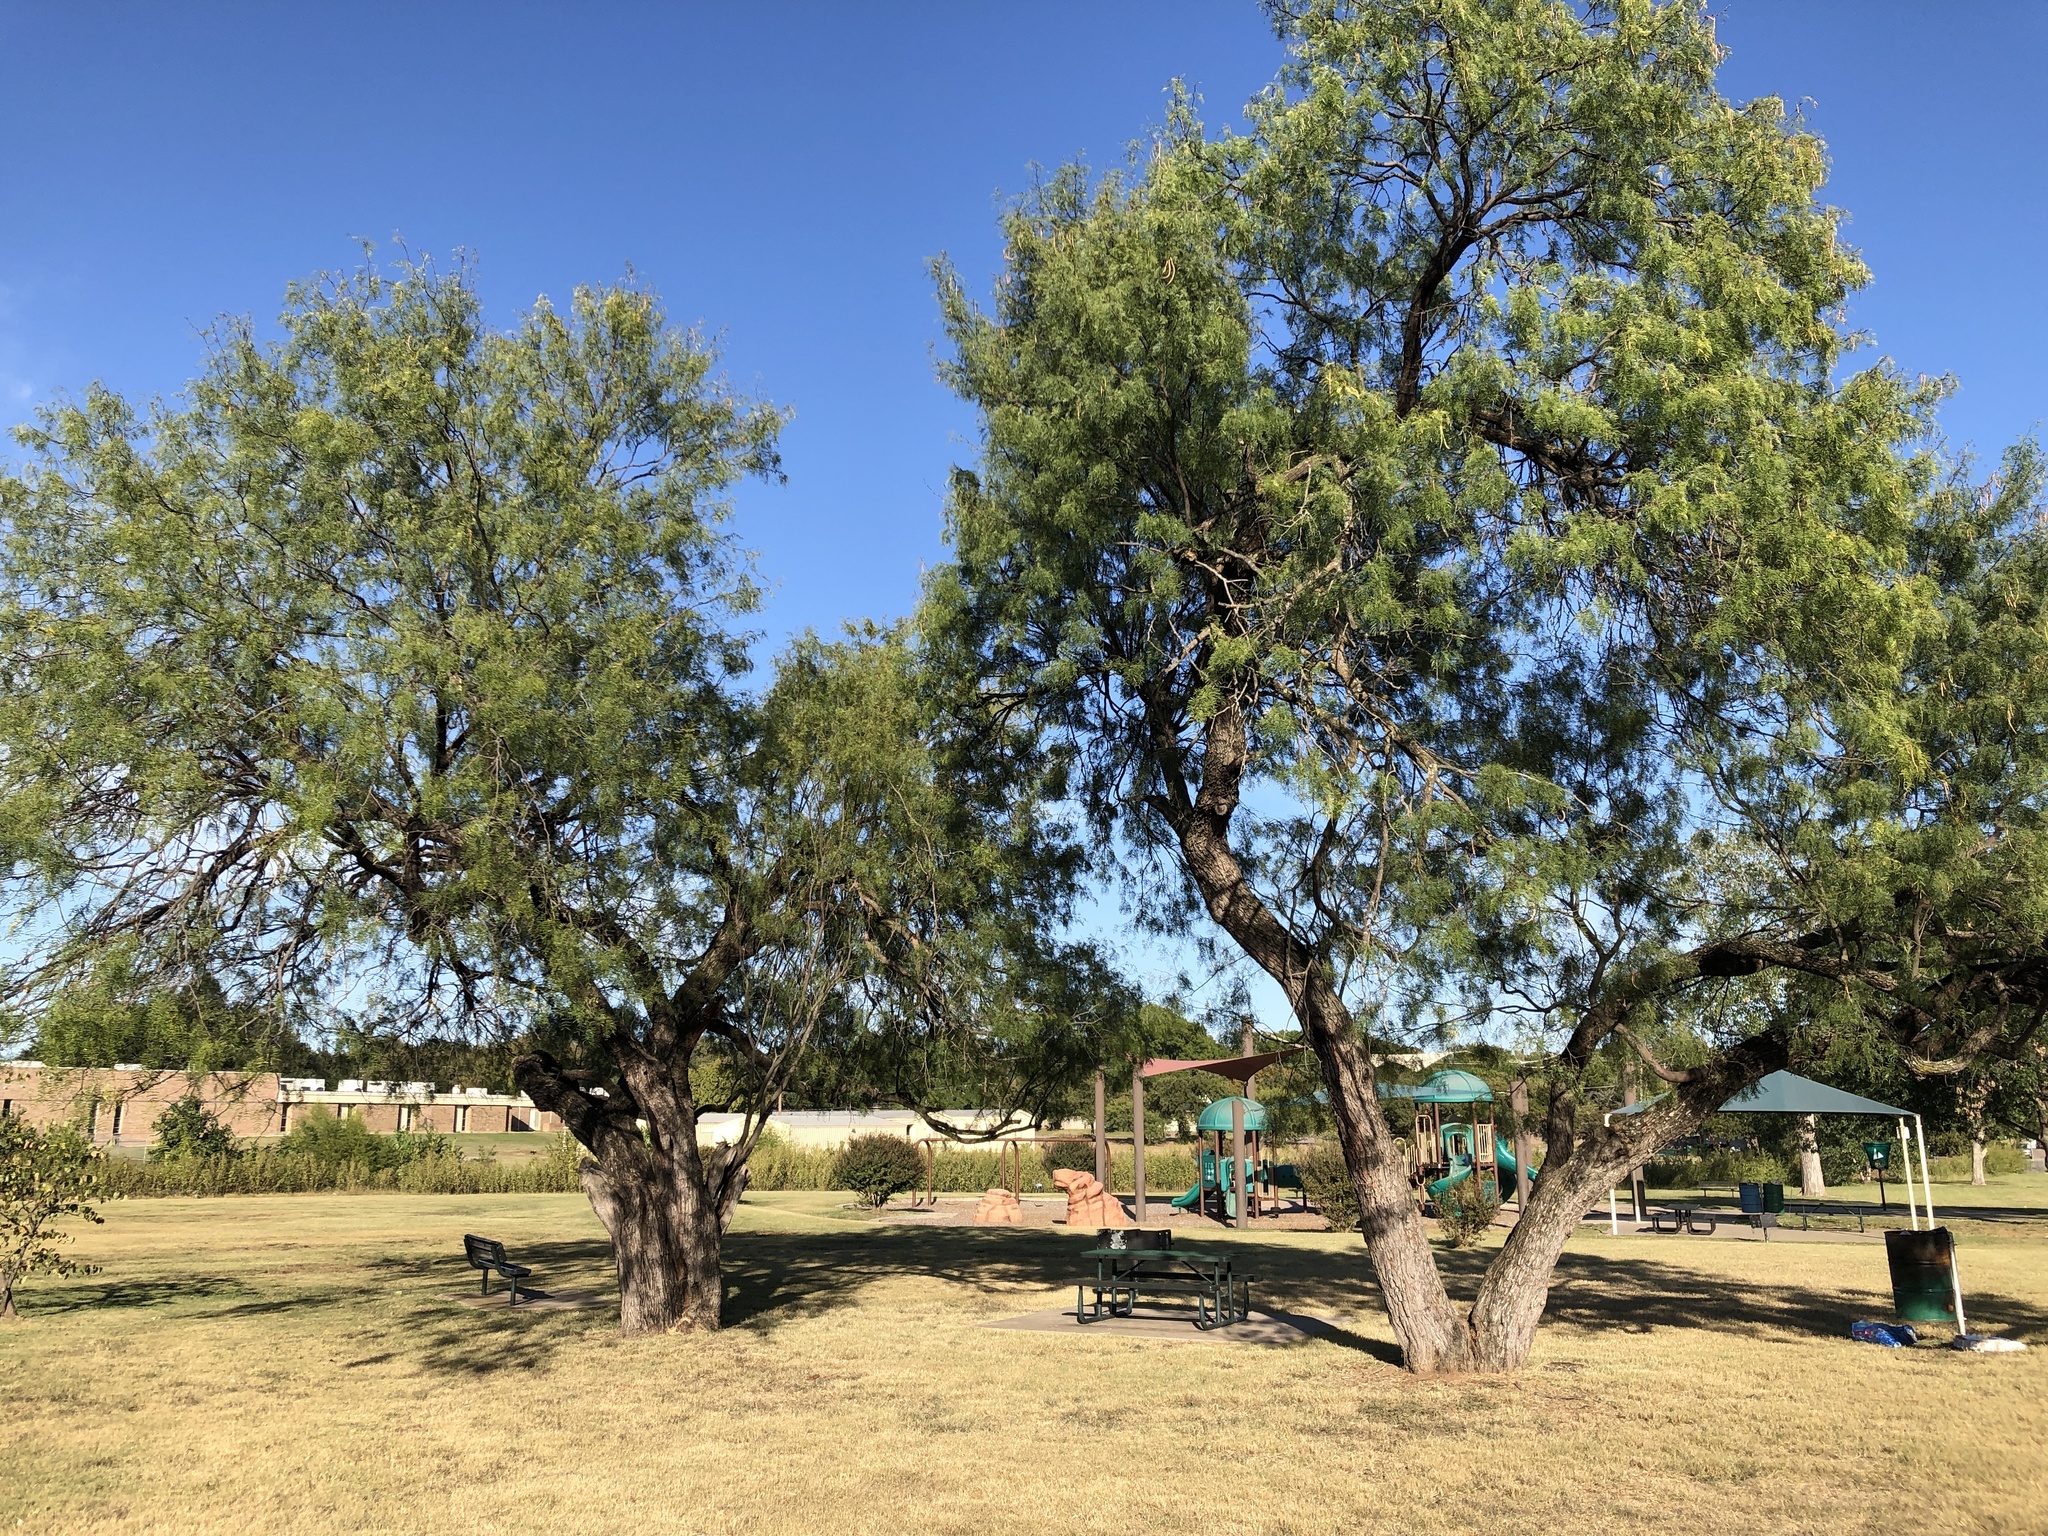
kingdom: Plantae
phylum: Tracheophyta
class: Magnoliopsida
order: Fabales
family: Fabaceae
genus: Prosopis
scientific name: Prosopis glandulosa
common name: Honey mesquite
